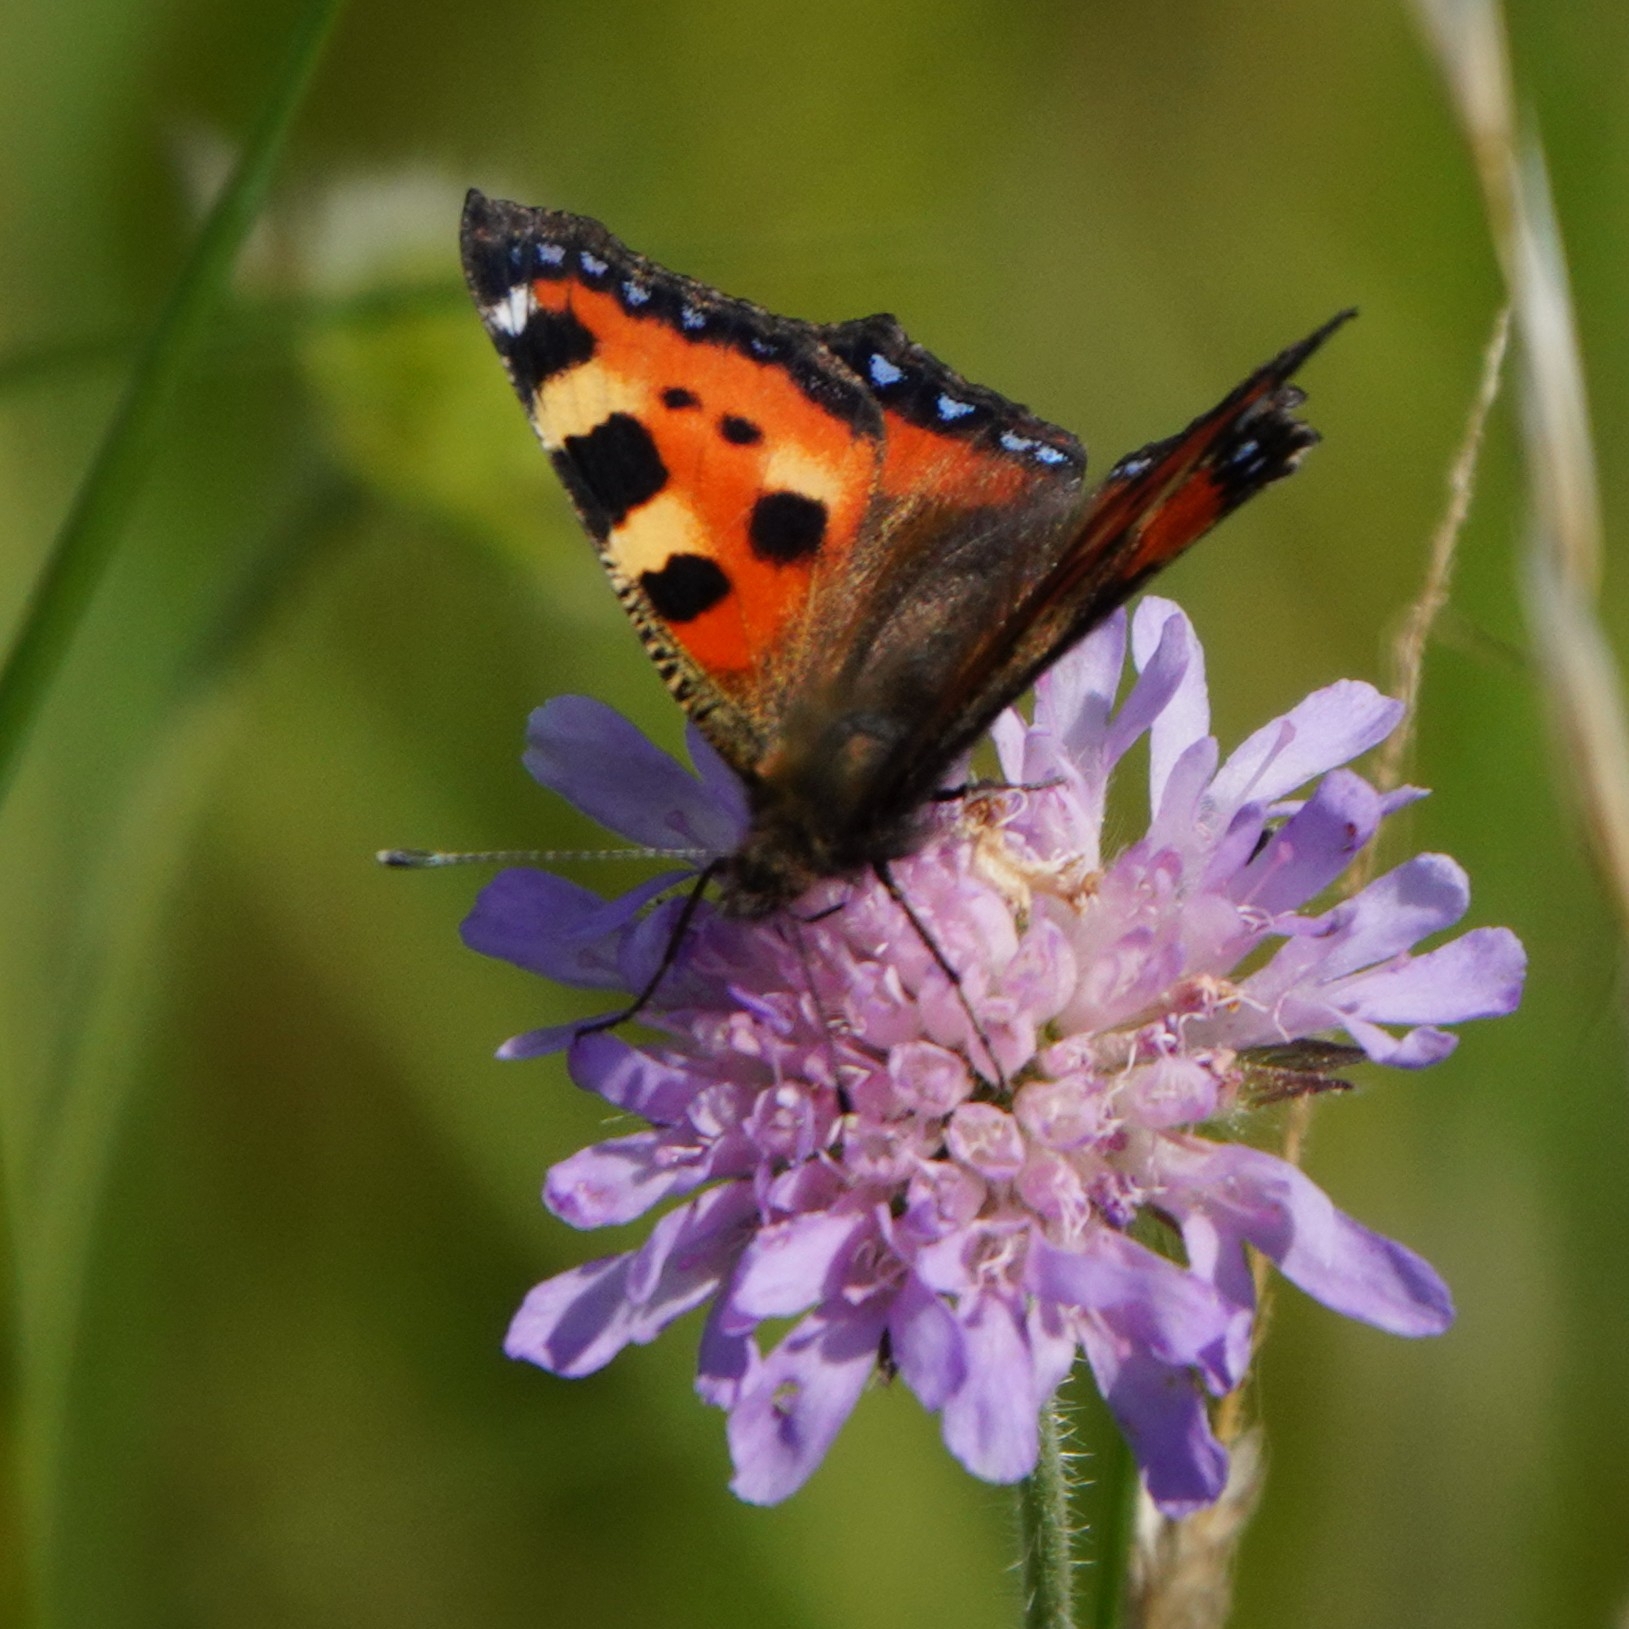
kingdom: Animalia
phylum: Arthropoda
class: Insecta
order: Lepidoptera
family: Nymphalidae
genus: Aglais
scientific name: Aglais urticae
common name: Small tortoiseshell
